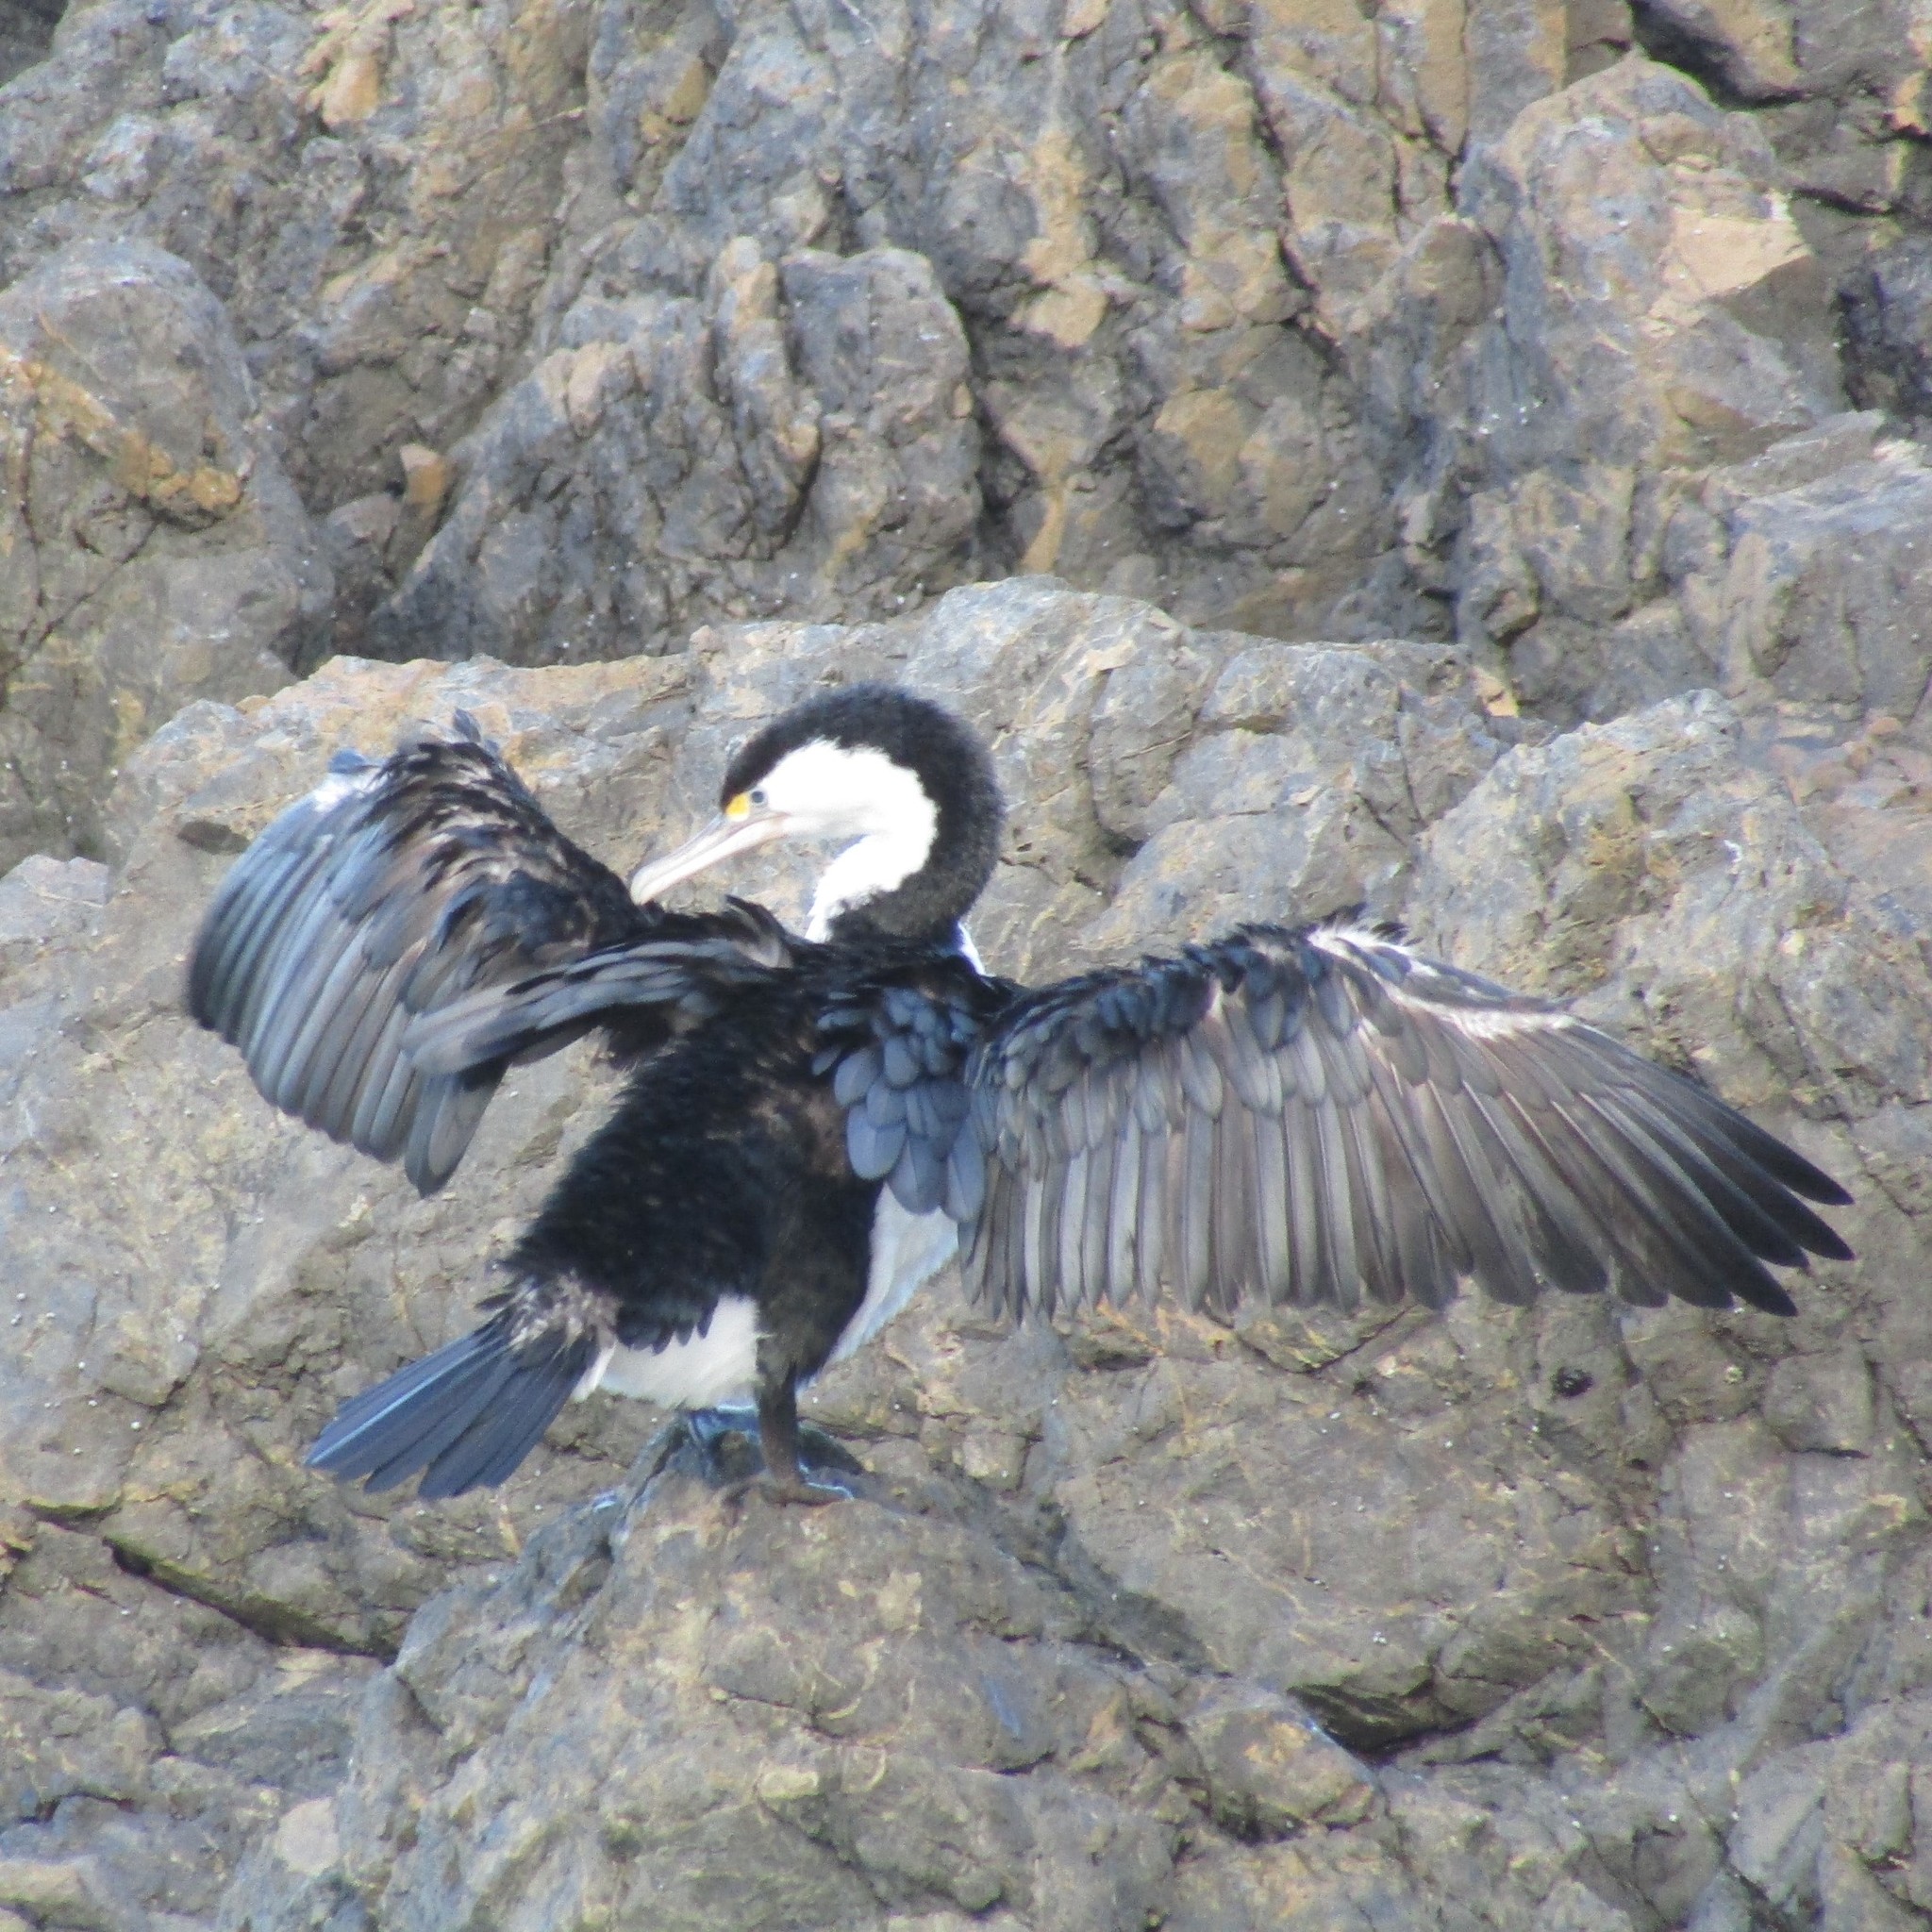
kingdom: Animalia
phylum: Chordata
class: Aves
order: Suliformes
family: Phalacrocoracidae
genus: Phalacrocorax
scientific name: Phalacrocorax varius
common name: Pied cormorant
